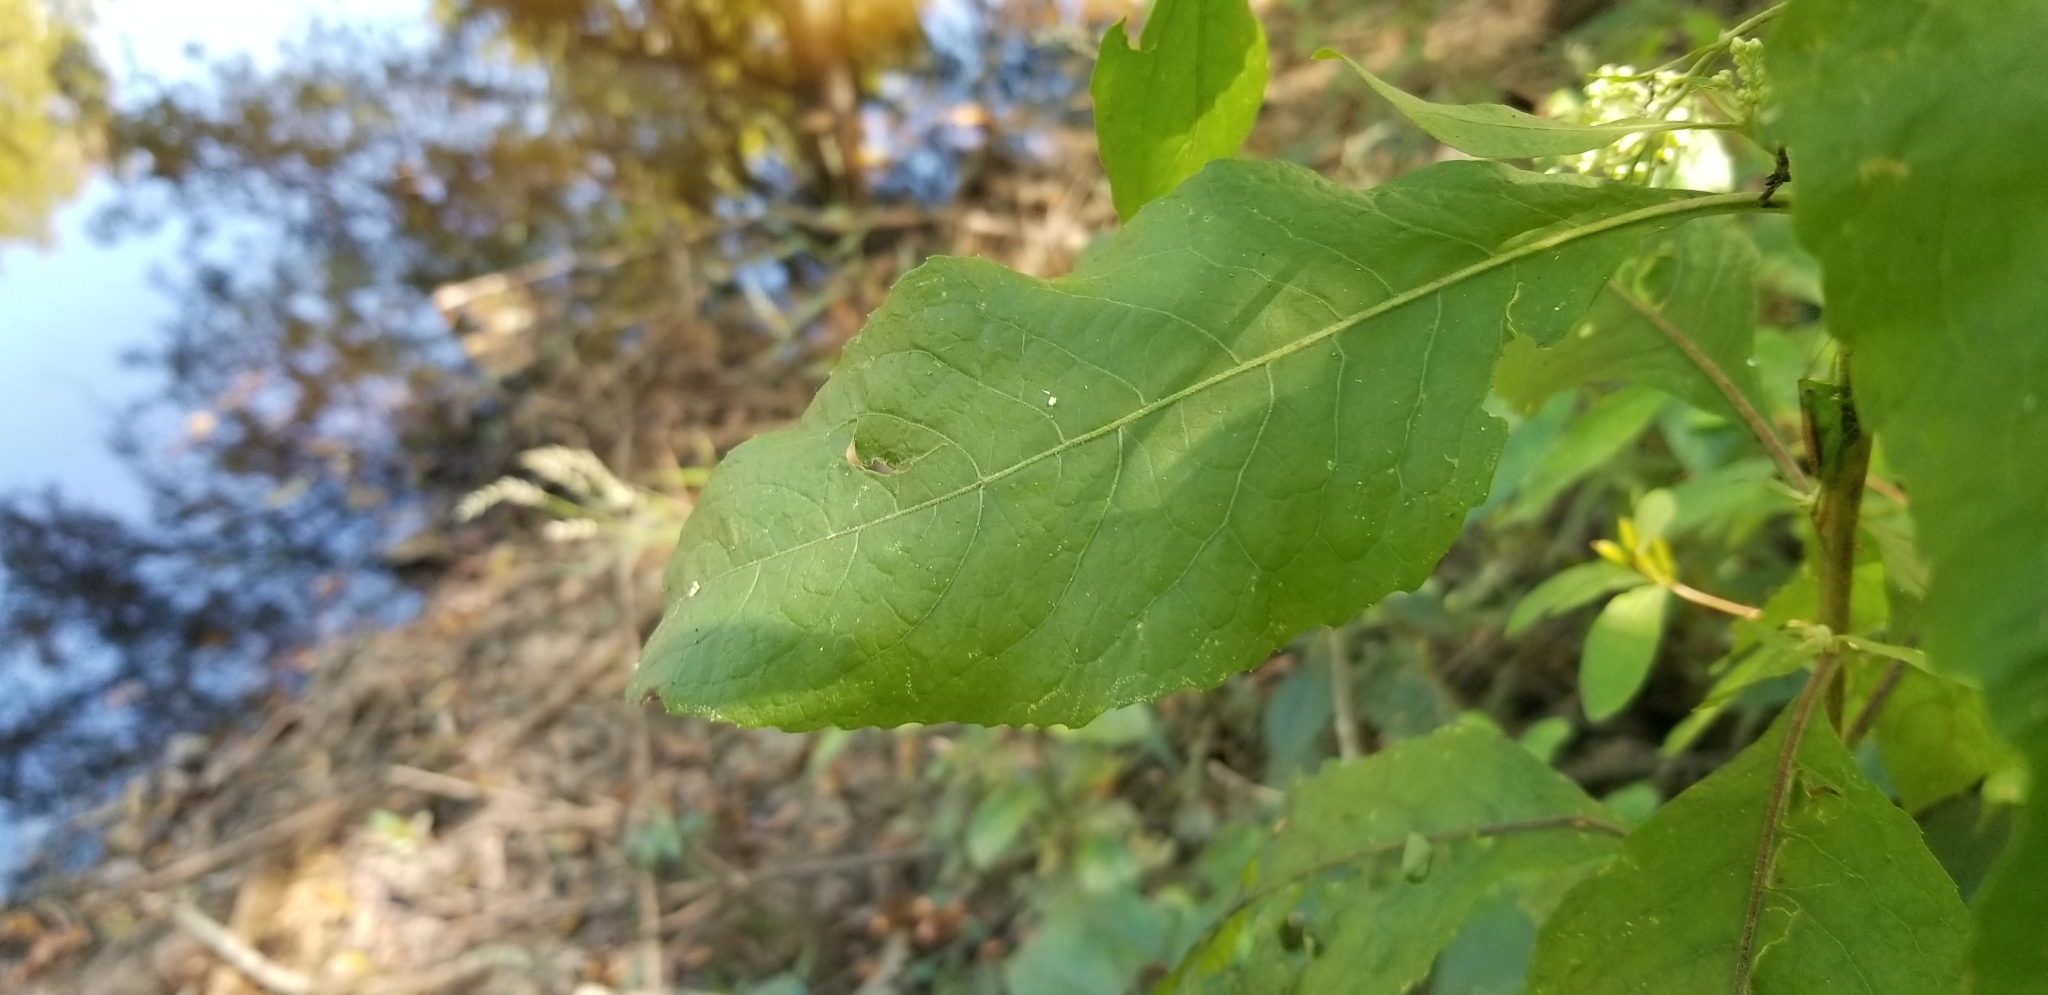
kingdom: Plantae
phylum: Tracheophyta
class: Magnoliopsida
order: Asterales
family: Asteraceae
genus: Pluchea
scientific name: Pluchea camphorata
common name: Camphor pluchea
